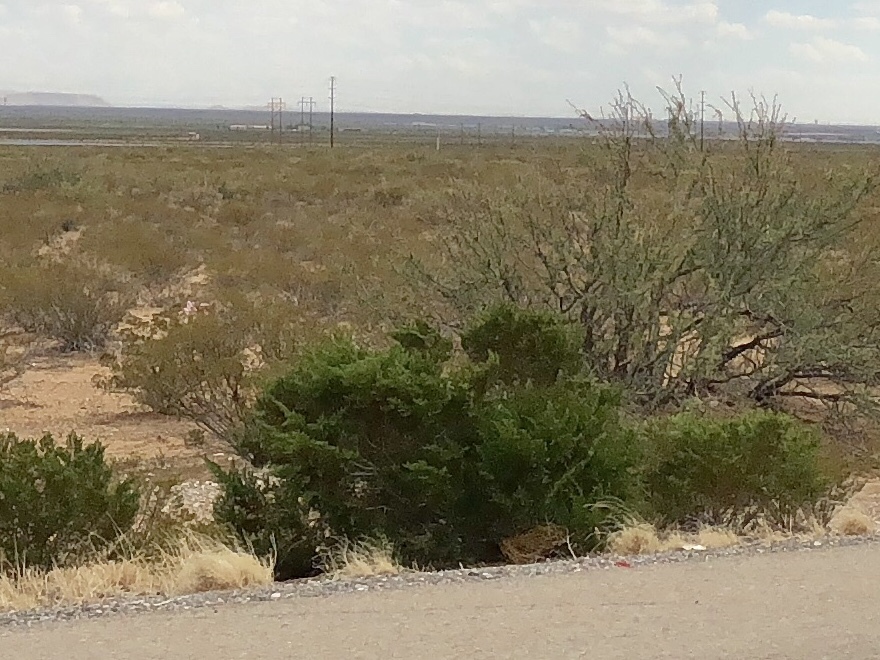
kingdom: Plantae
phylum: Tracheophyta
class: Magnoliopsida
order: Zygophyllales
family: Zygophyllaceae
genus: Larrea
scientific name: Larrea tridentata
